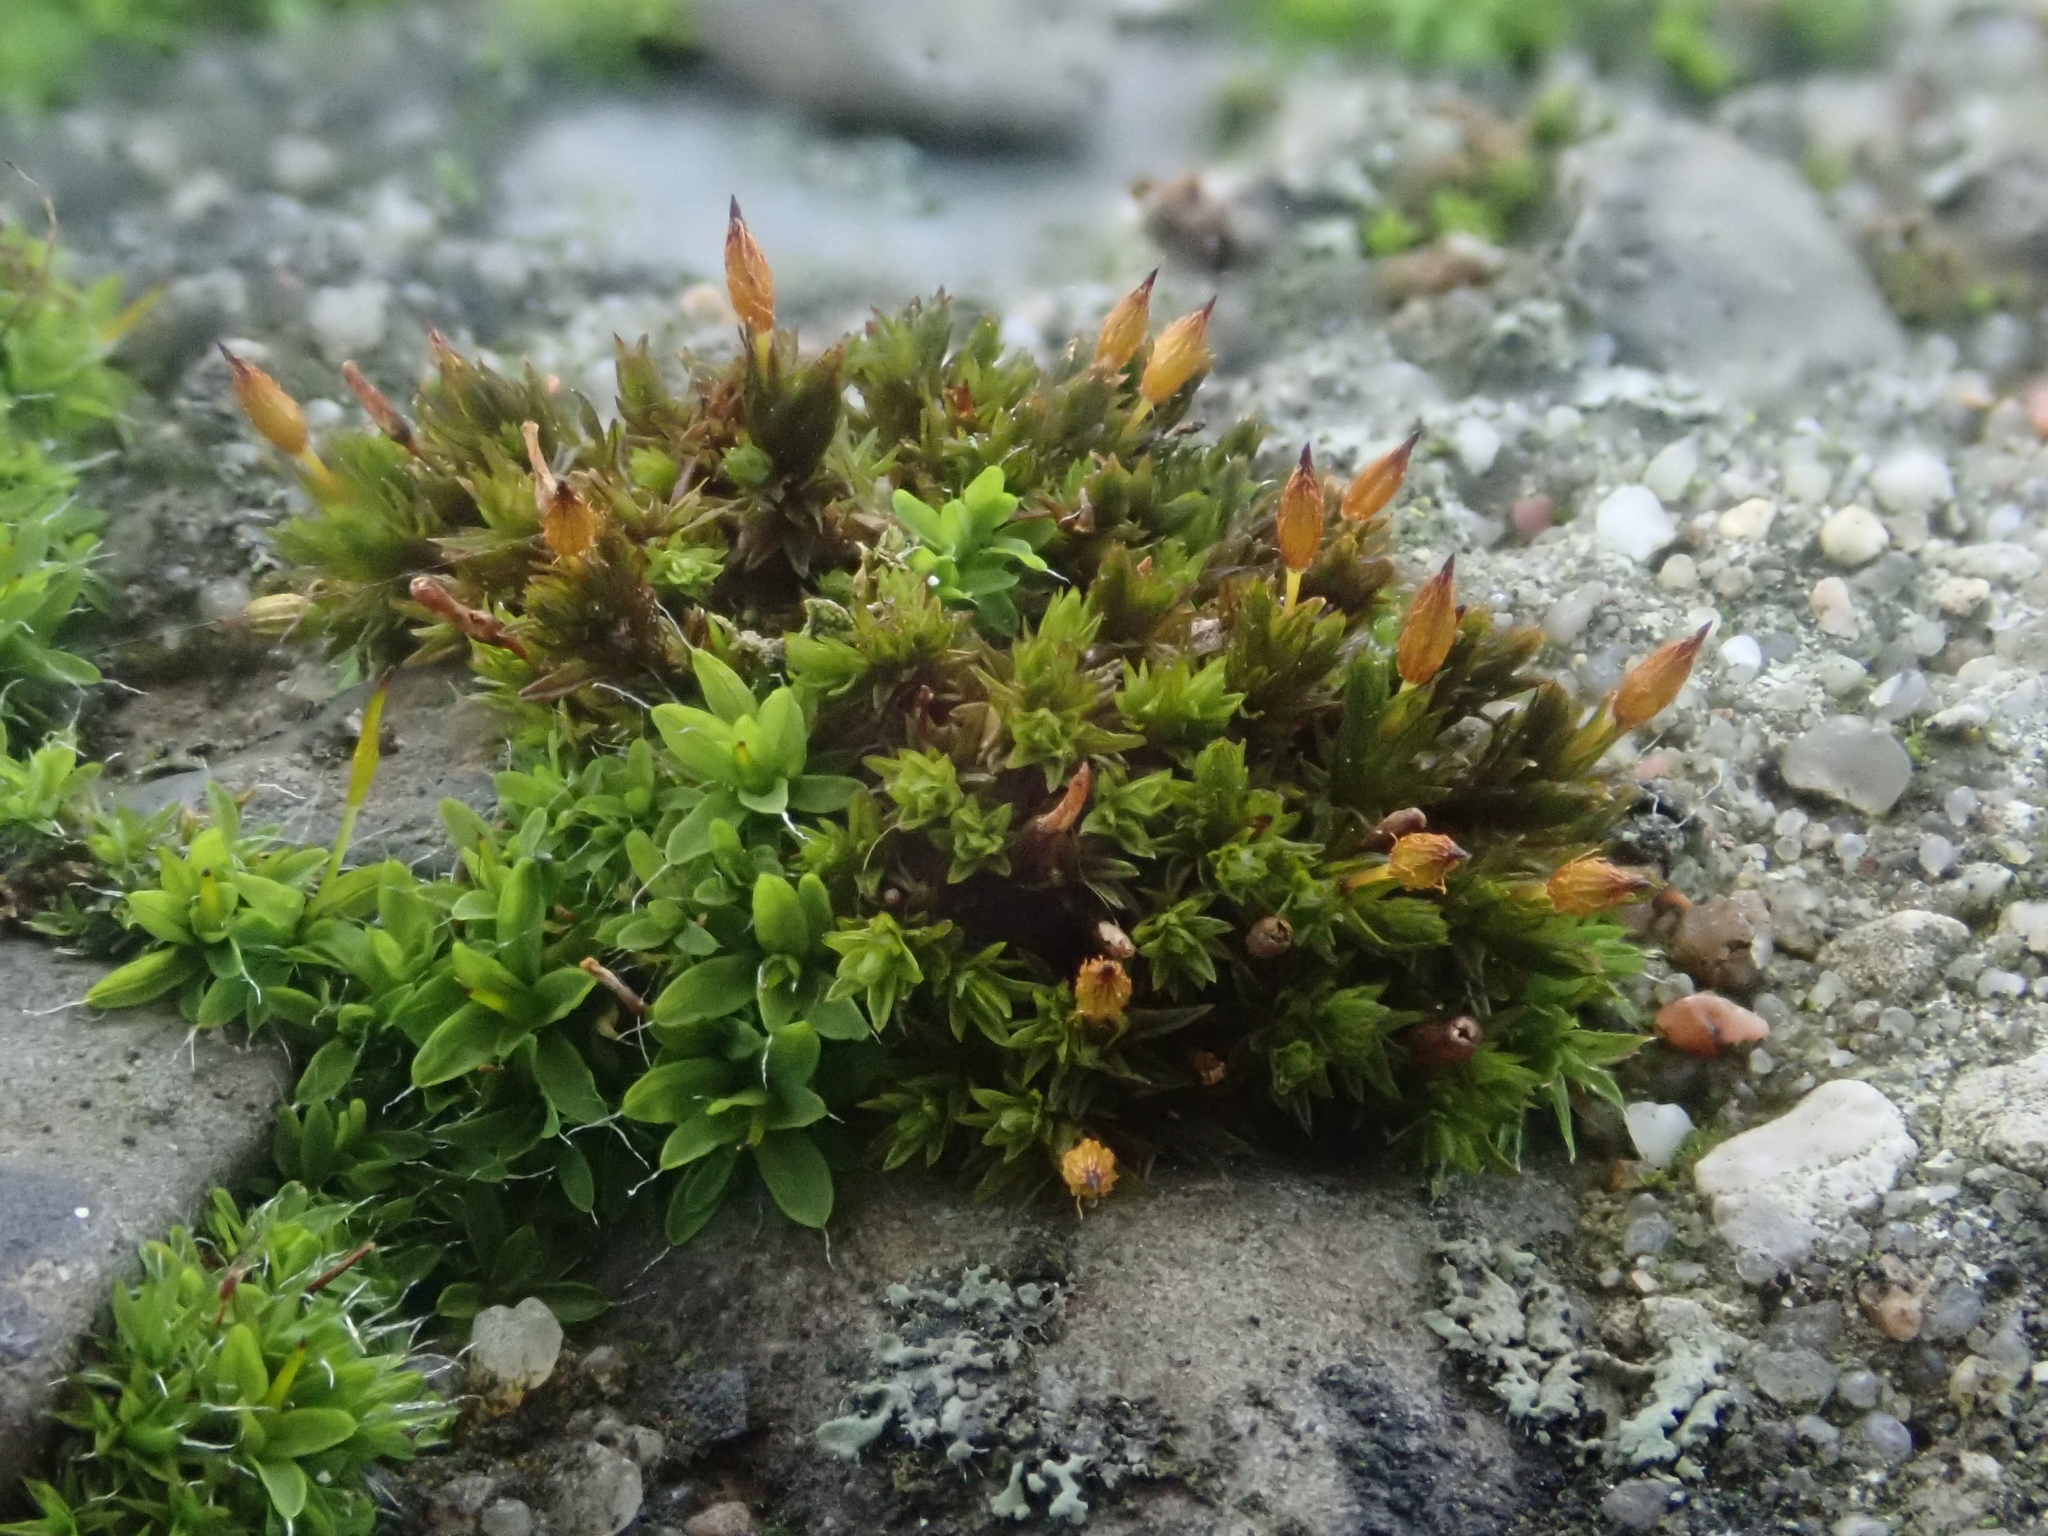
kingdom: Plantae
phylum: Bryophyta
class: Bryopsida
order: Orthotrichales
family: Orthotrichaceae
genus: Orthotrichum
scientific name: Orthotrichum anomalum
